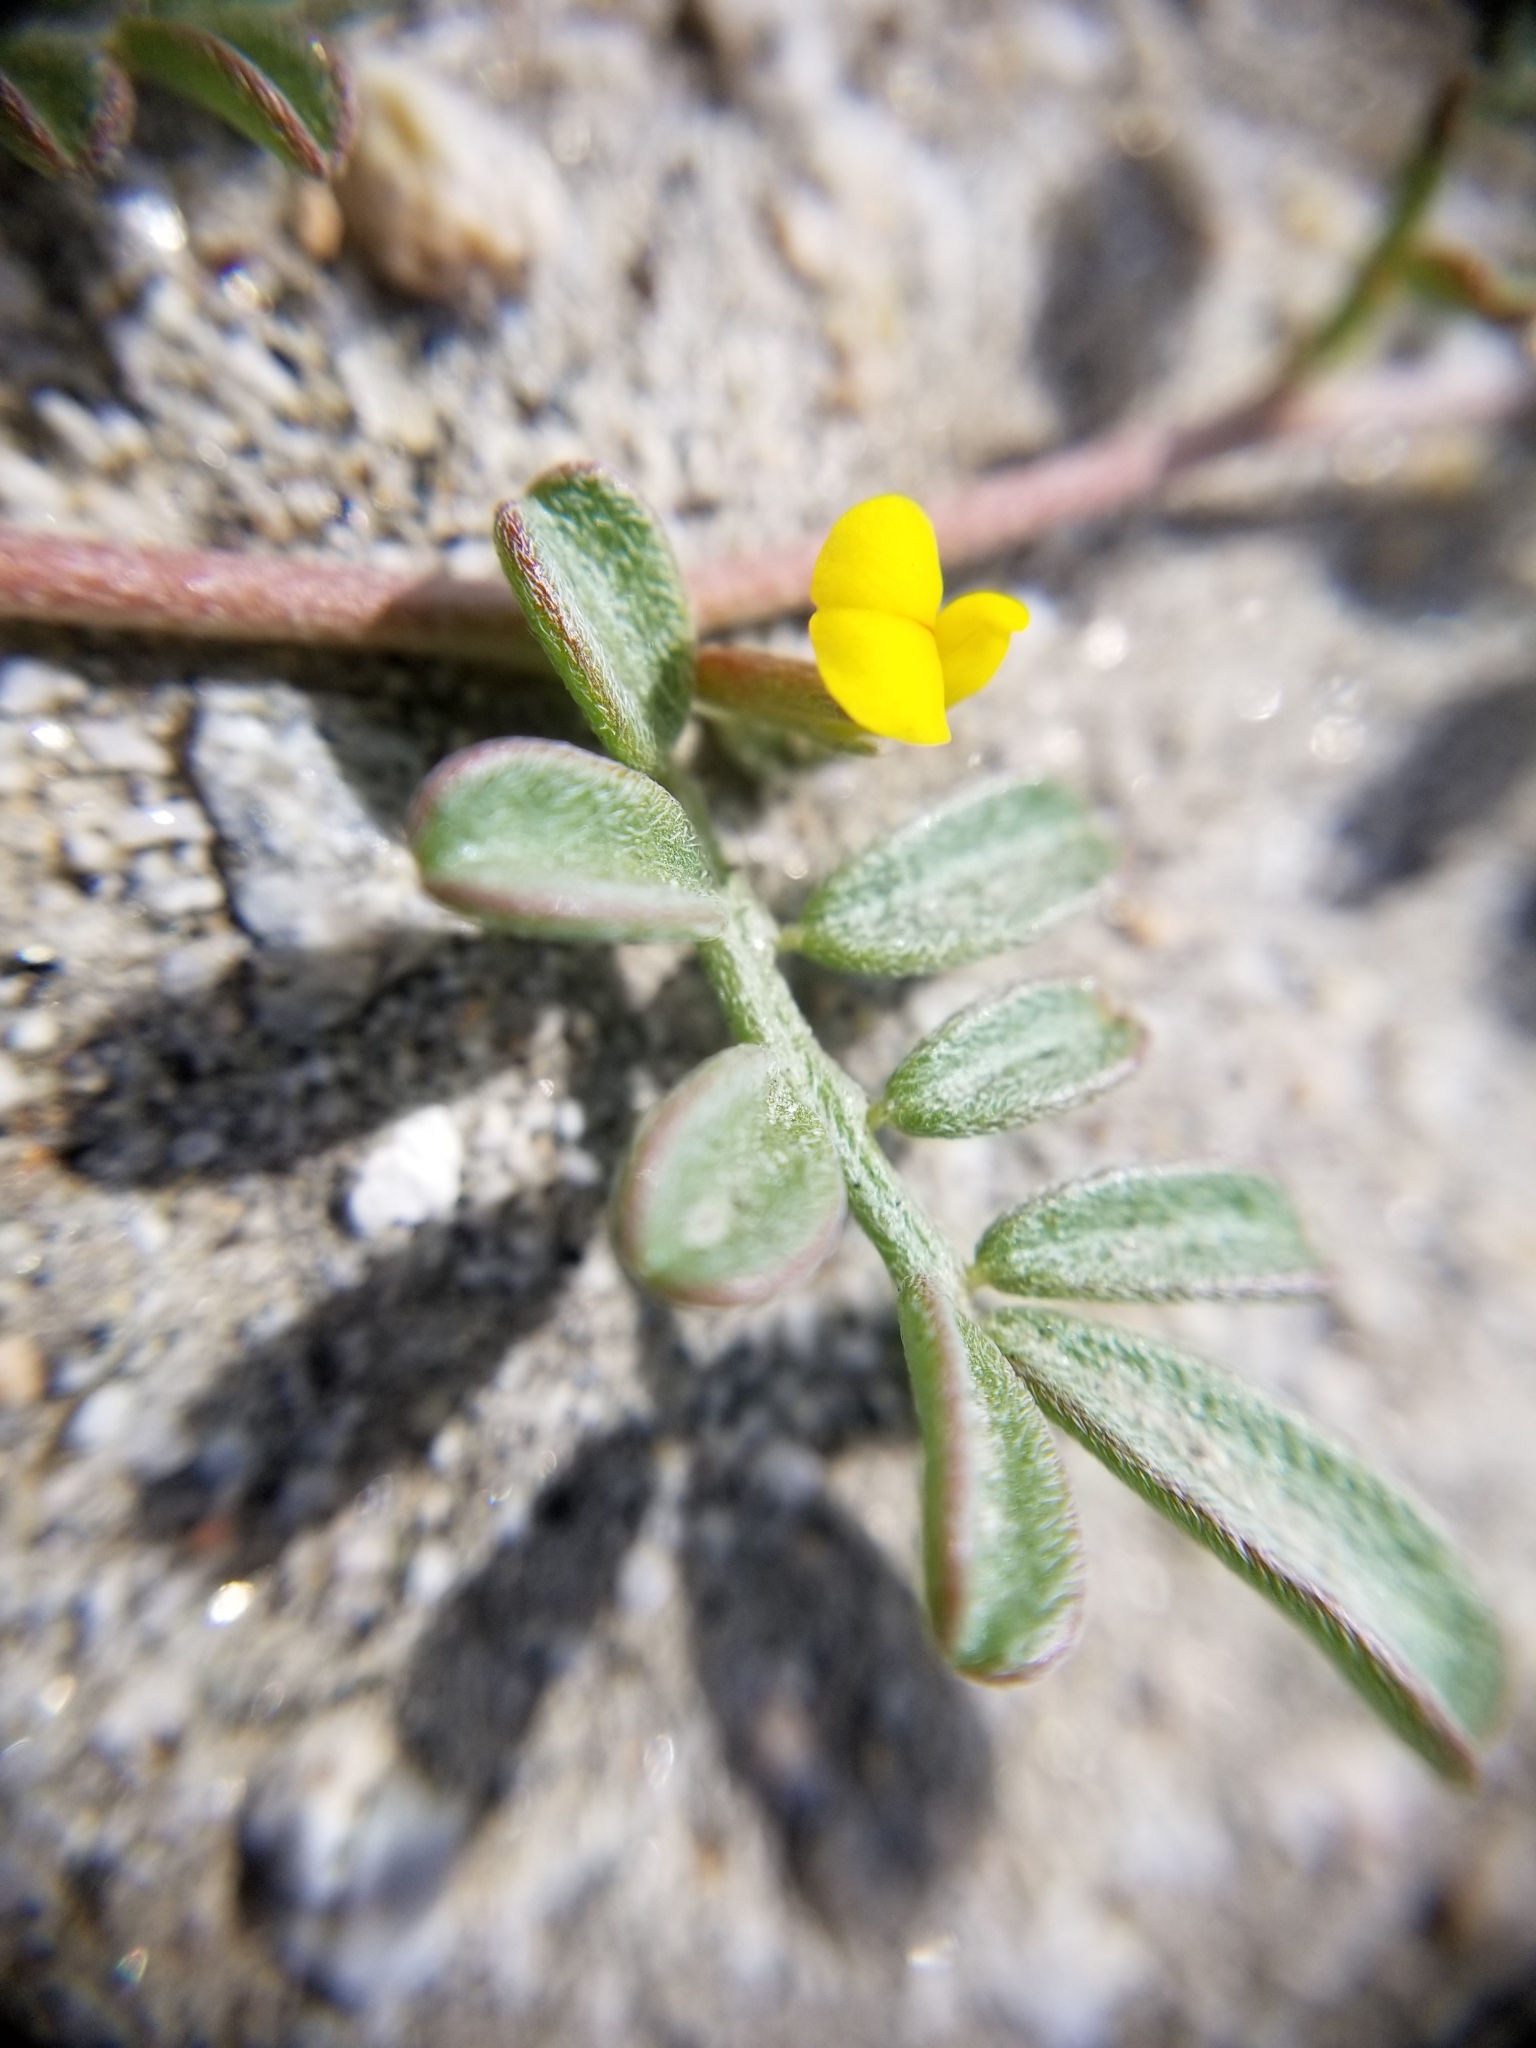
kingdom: Plantae
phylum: Tracheophyta
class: Magnoliopsida
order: Fabales
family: Fabaceae
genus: Acmispon
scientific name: Acmispon strigosus
